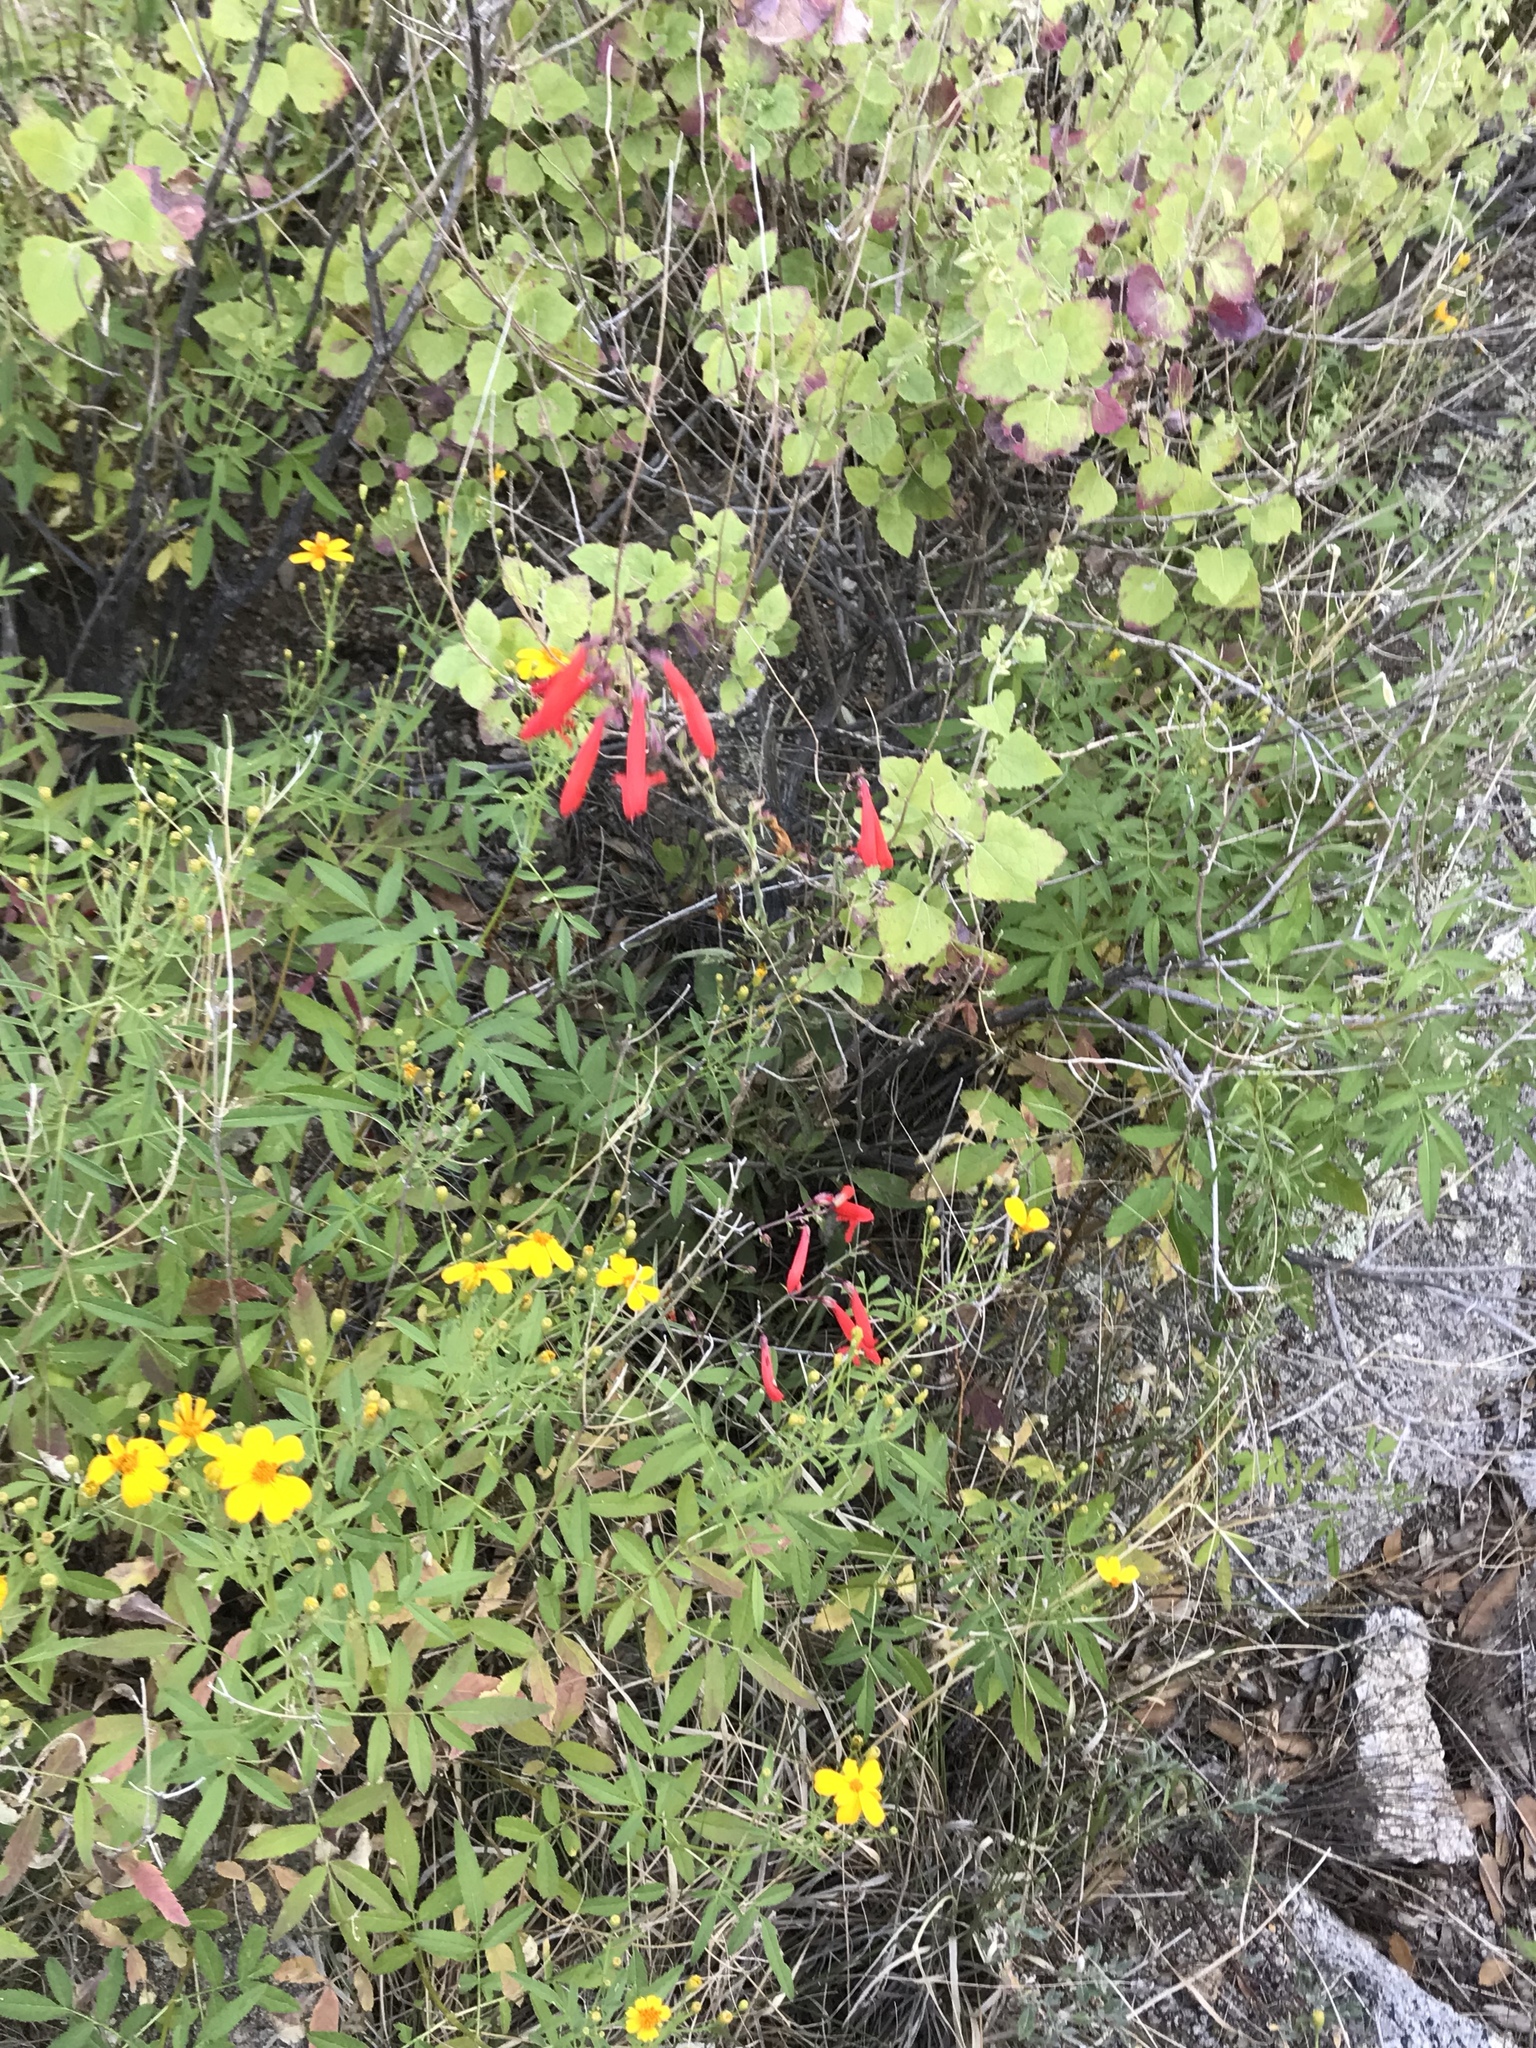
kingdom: Plantae
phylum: Tracheophyta
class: Magnoliopsida
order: Lamiales
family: Plantaginaceae
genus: Penstemon
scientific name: Penstemon barbatus
